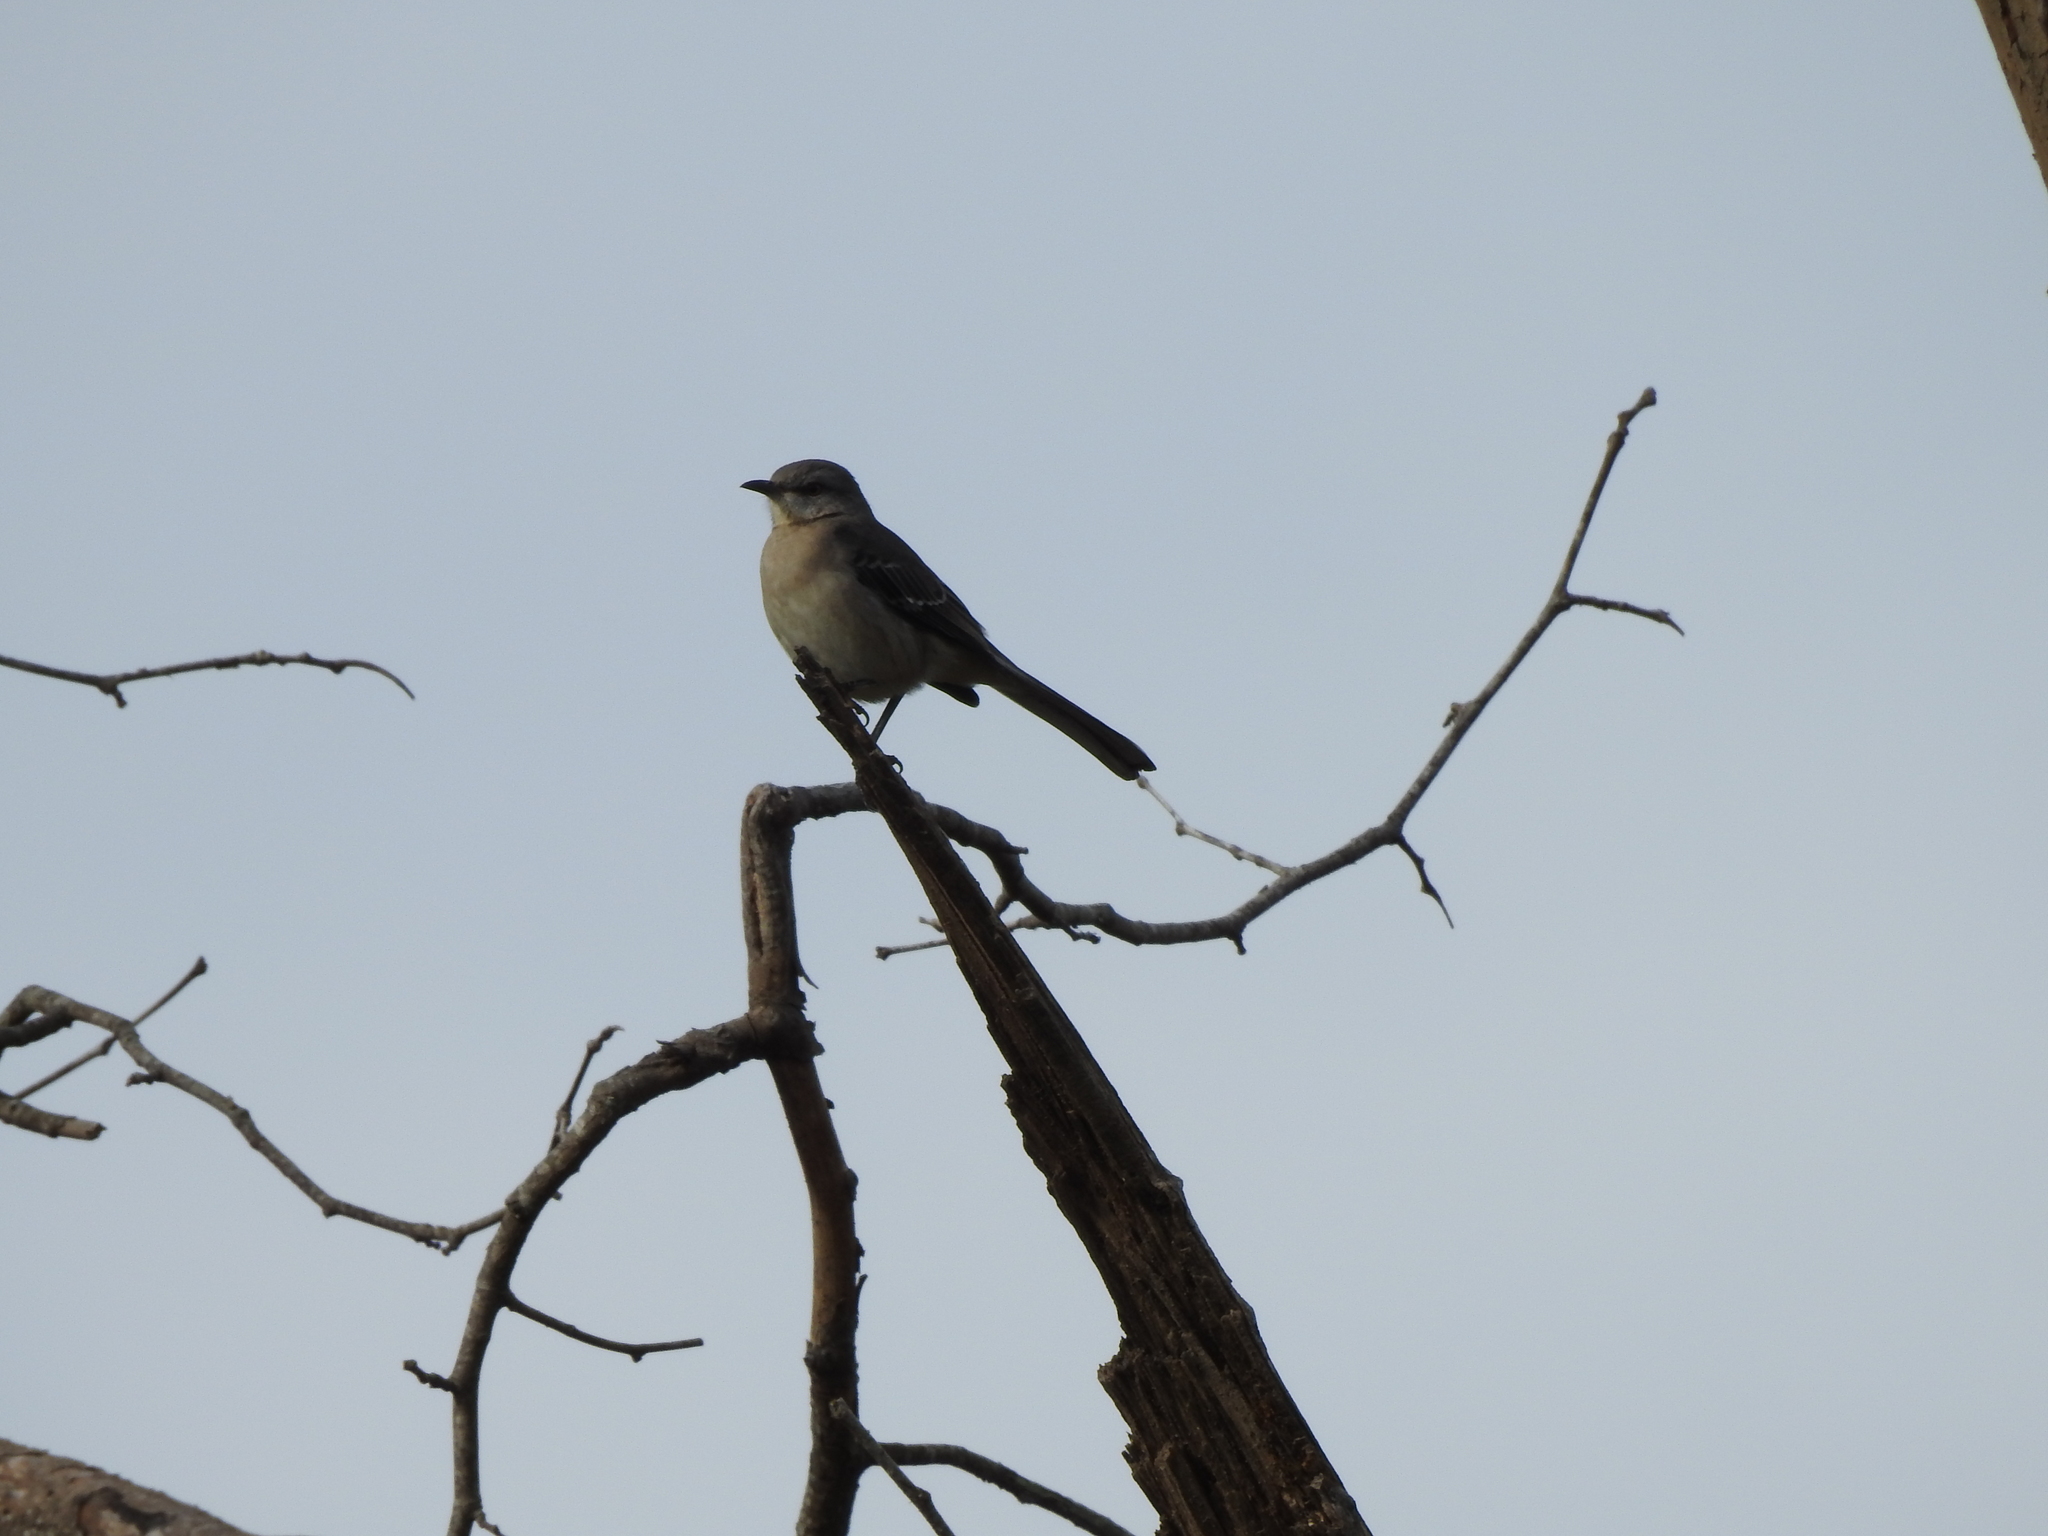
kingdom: Animalia
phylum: Chordata
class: Aves
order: Passeriformes
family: Mimidae
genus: Mimus
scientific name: Mimus polyglottos
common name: Northern mockingbird
